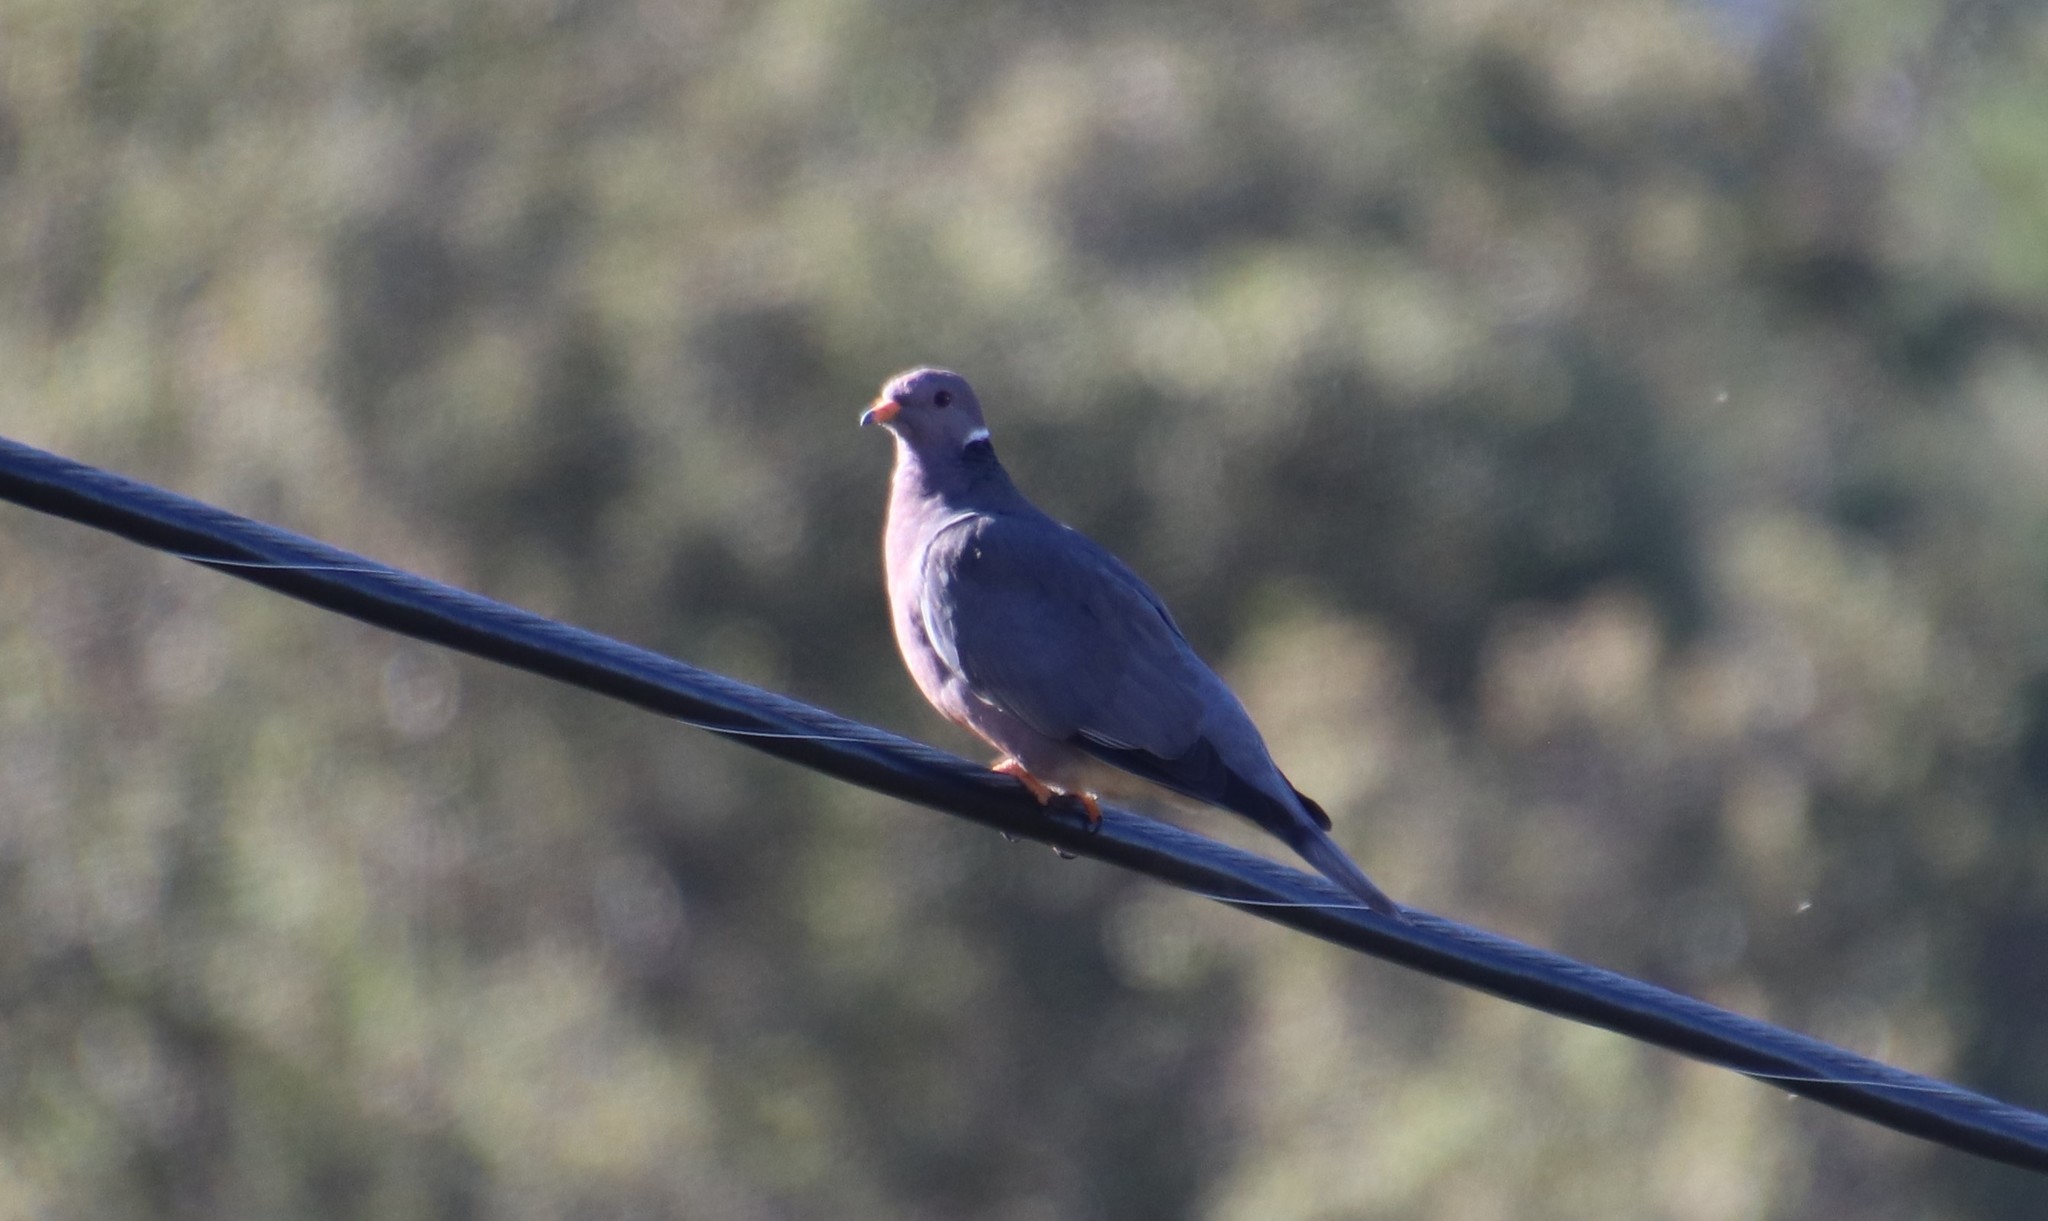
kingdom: Animalia
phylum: Chordata
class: Aves
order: Columbiformes
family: Columbidae
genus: Patagioenas
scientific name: Patagioenas fasciata
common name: Band-tailed pigeon
